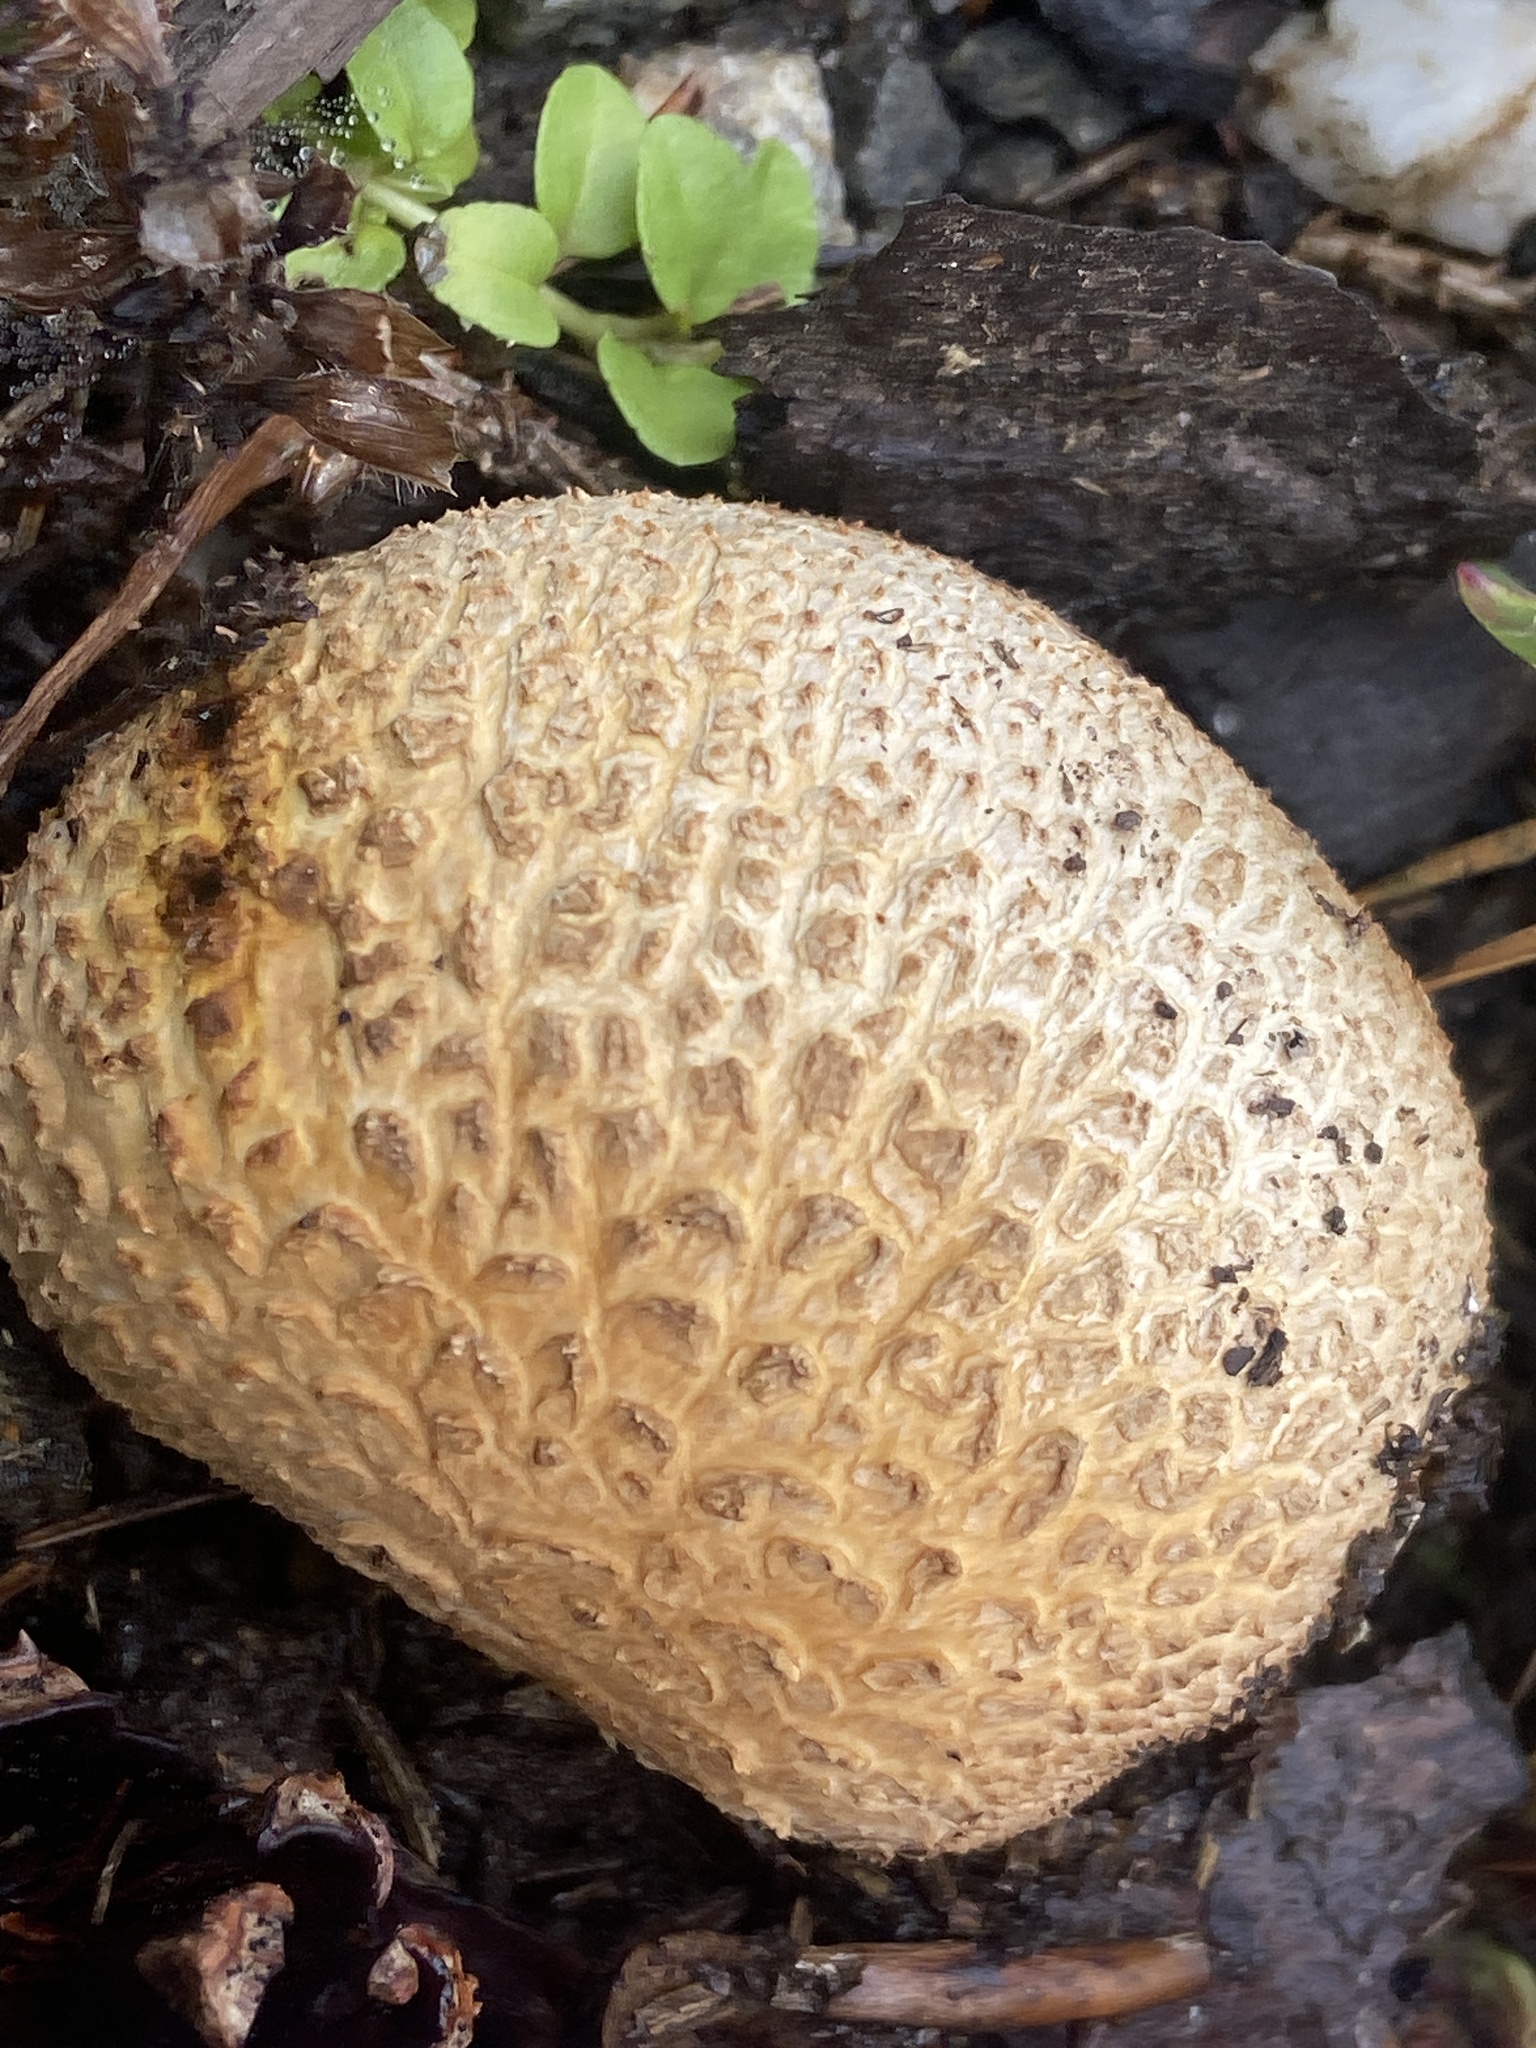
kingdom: Fungi
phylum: Basidiomycota
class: Agaricomycetes
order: Boletales
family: Sclerodermataceae
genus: Scleroderma
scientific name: Scleroderma citrinum
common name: Common earthball
